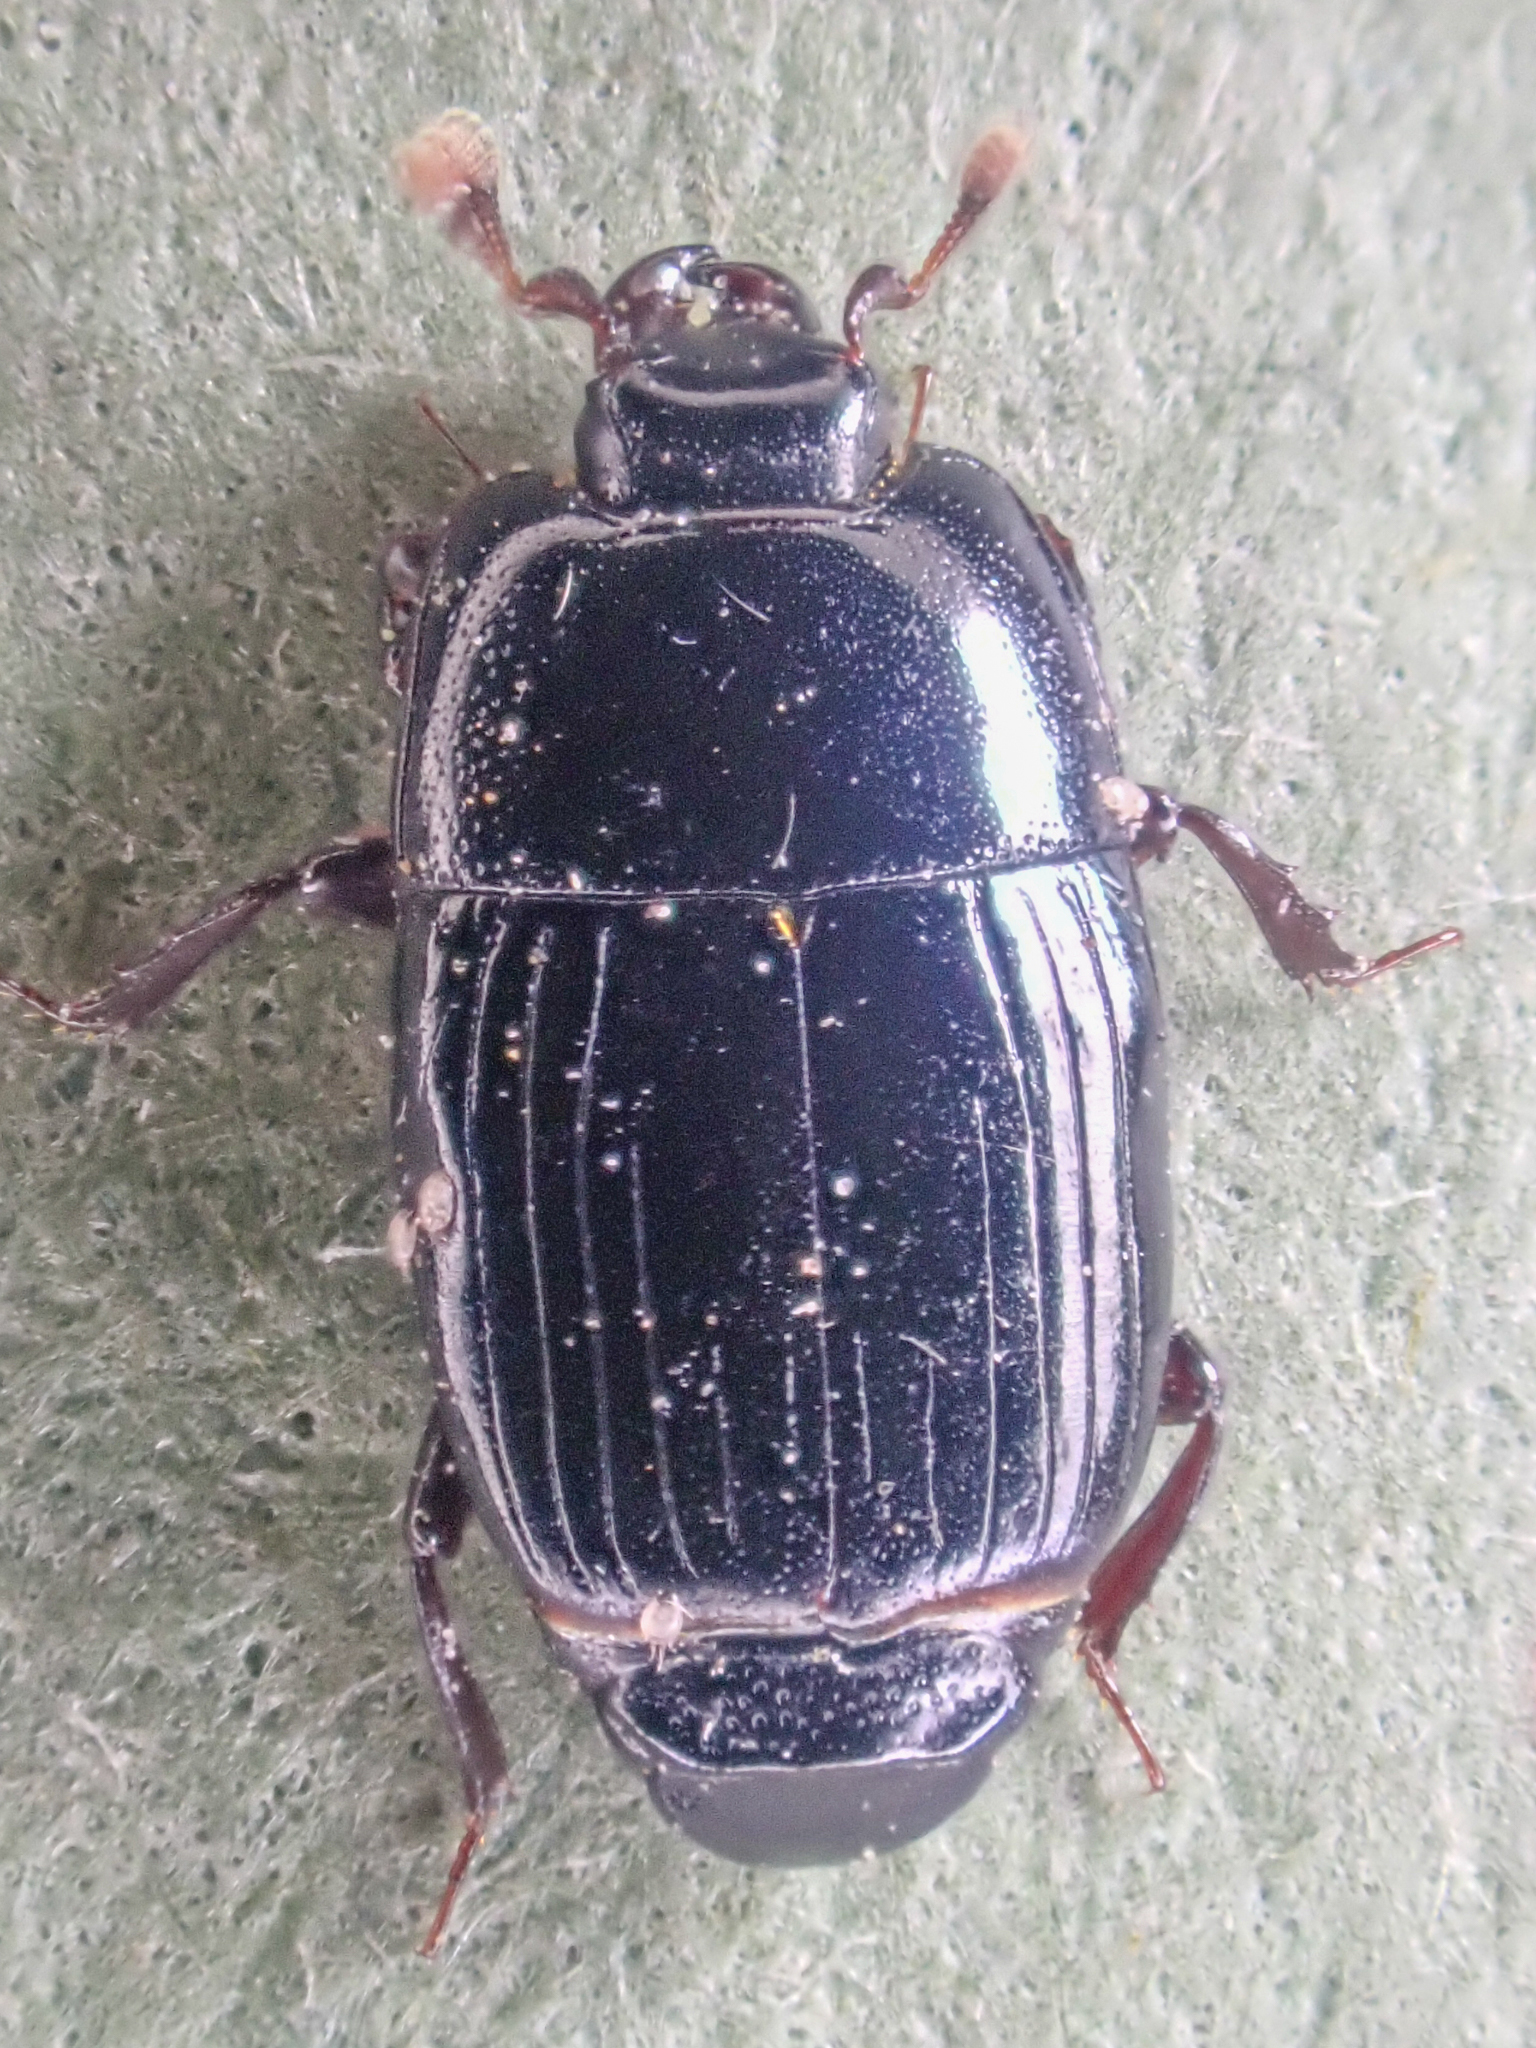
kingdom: Animalia
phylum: Arthropoda
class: Insecta
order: Coleoptera
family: Histeridae
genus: Platysoma
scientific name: Platysoma leconti
